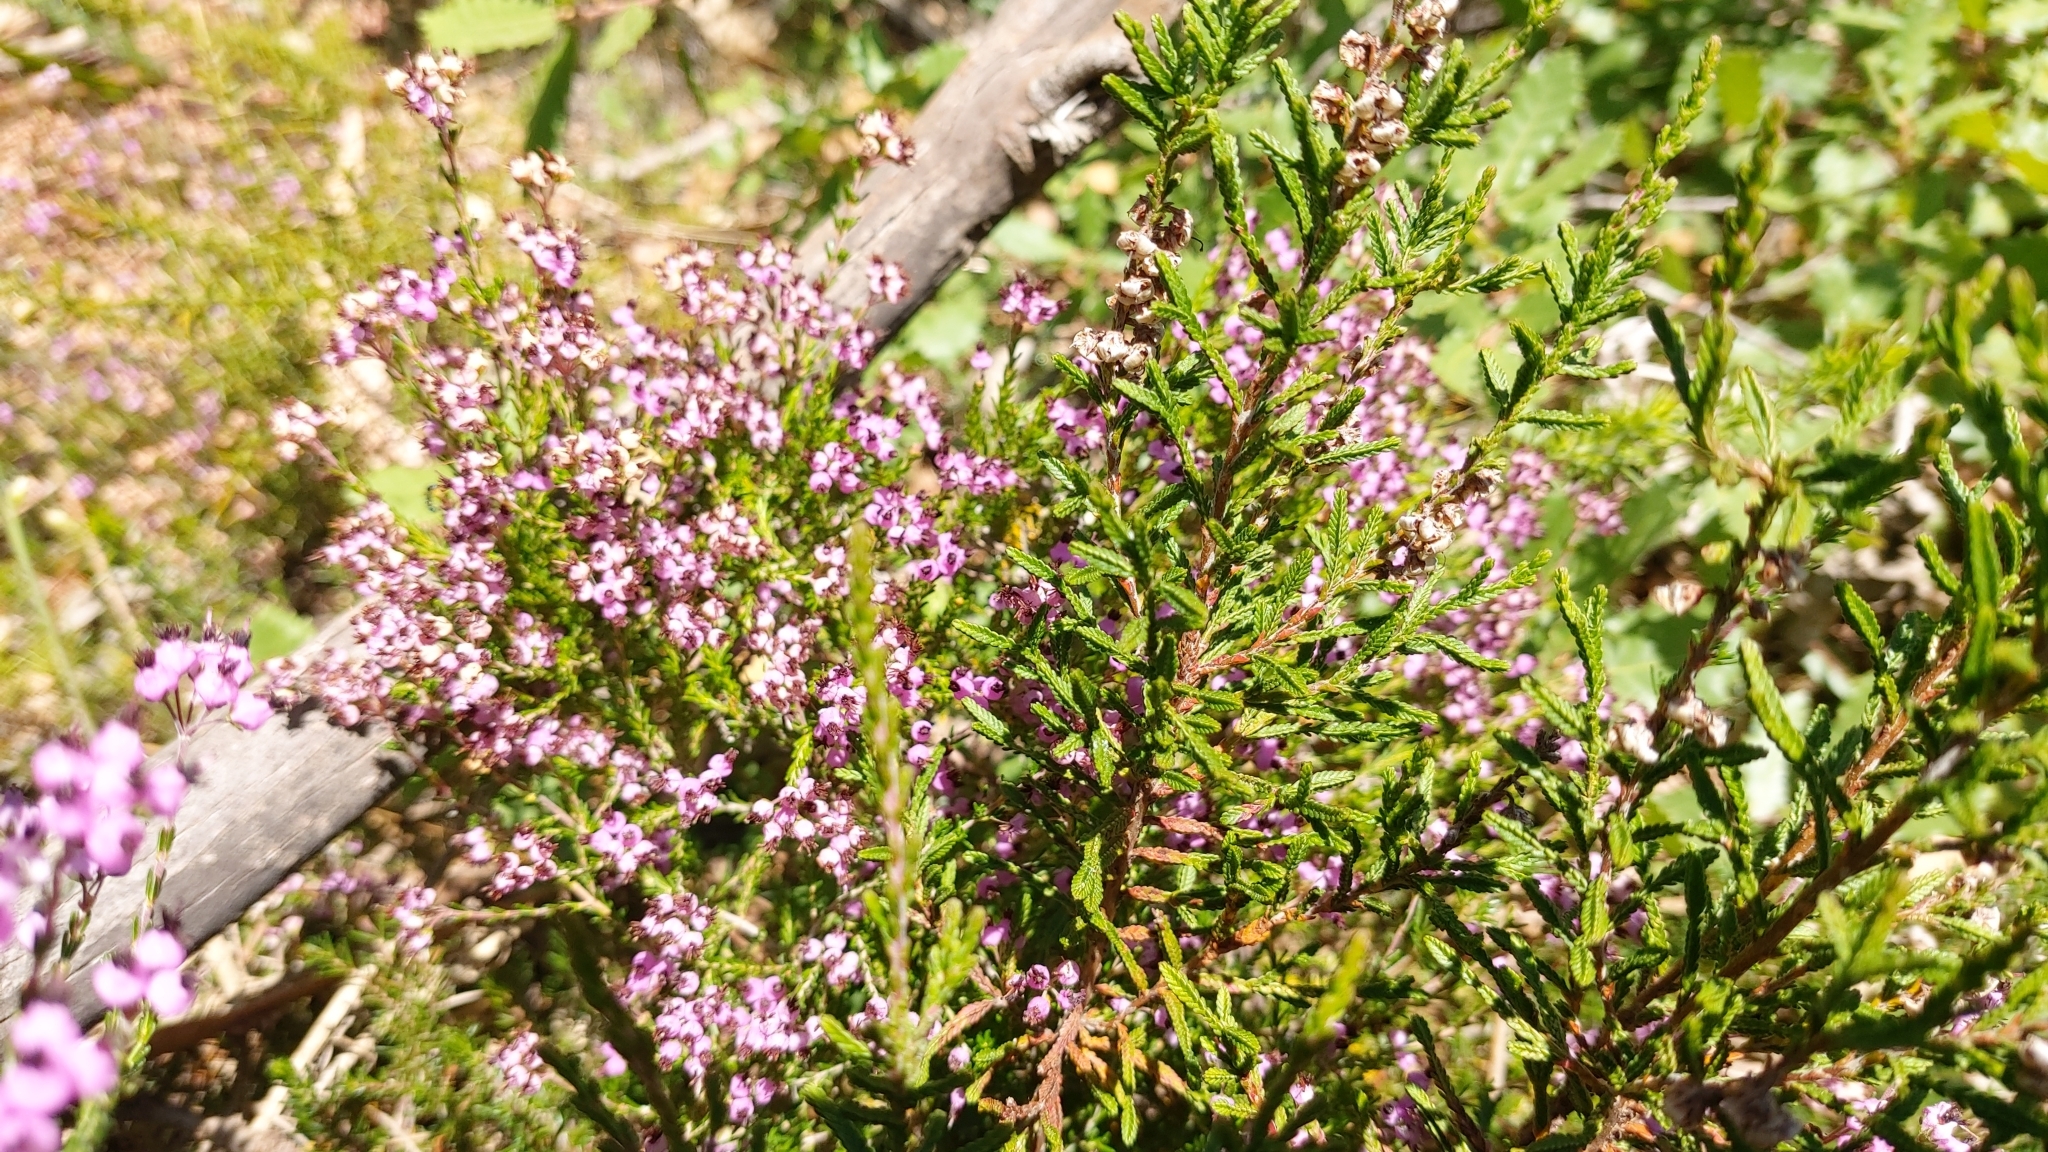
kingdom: Plantae
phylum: Tracheophyta
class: Magnoliopsida
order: Ericales
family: Ericaceae
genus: Erica
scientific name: Erica umbellata
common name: Dwarf spanish heath
